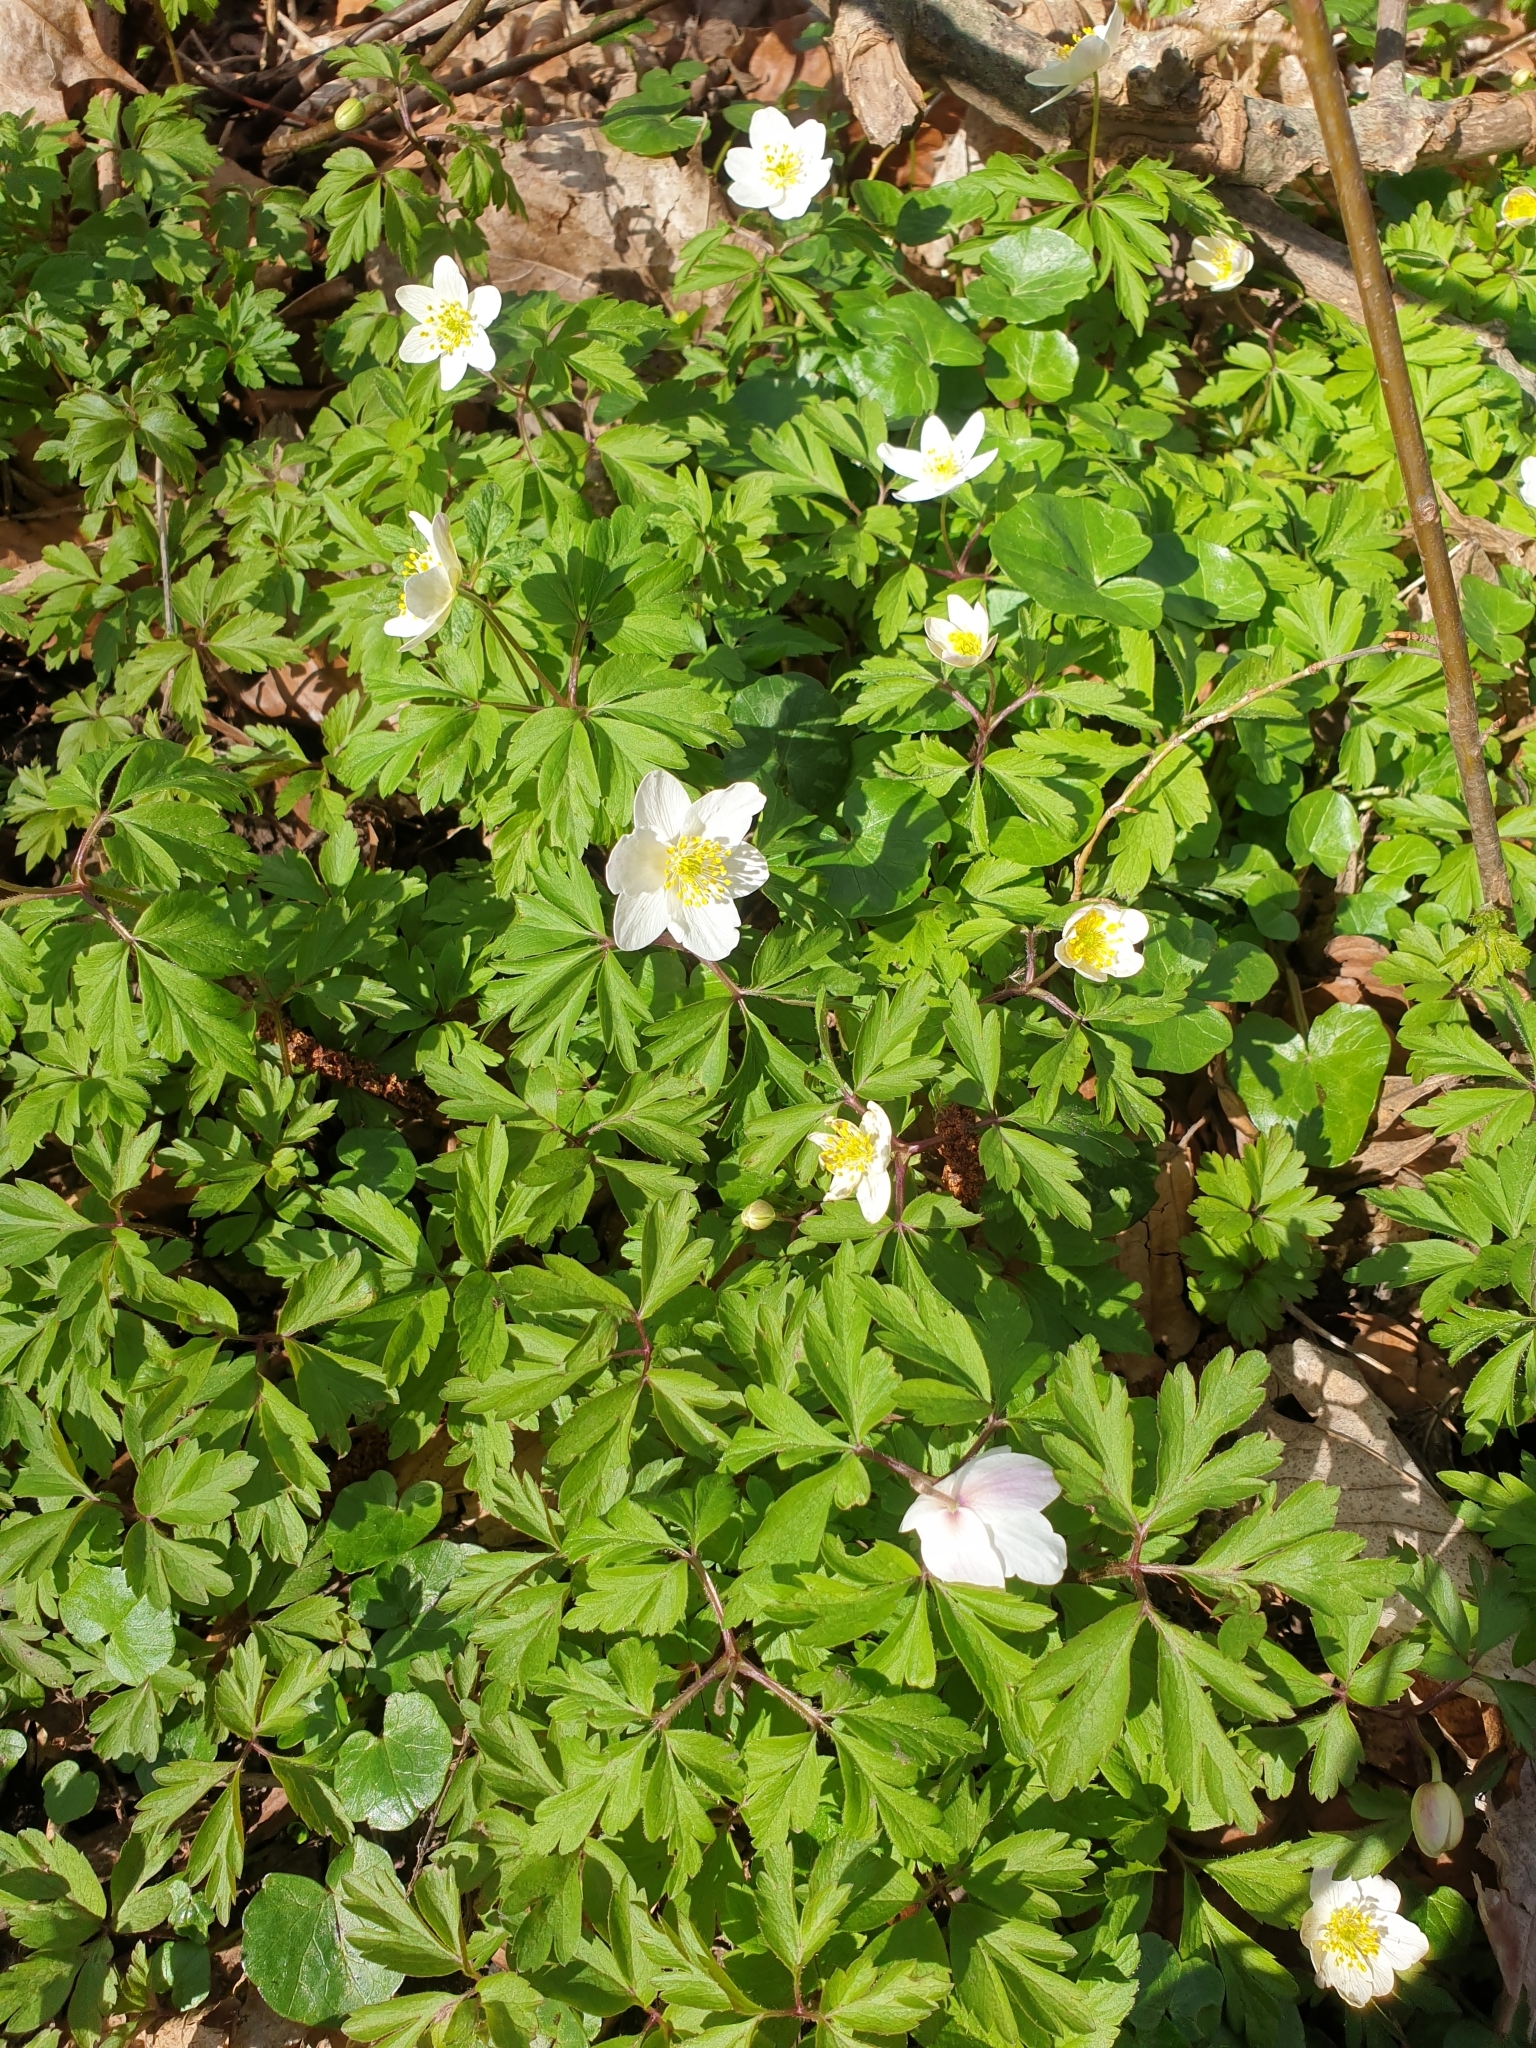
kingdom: Plantae
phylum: Tracheophyta
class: Magnoliopsida
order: Ranunculales
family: Ranunculaceae
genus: Anemone
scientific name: Anemone nemorosa
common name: Wood anemone
